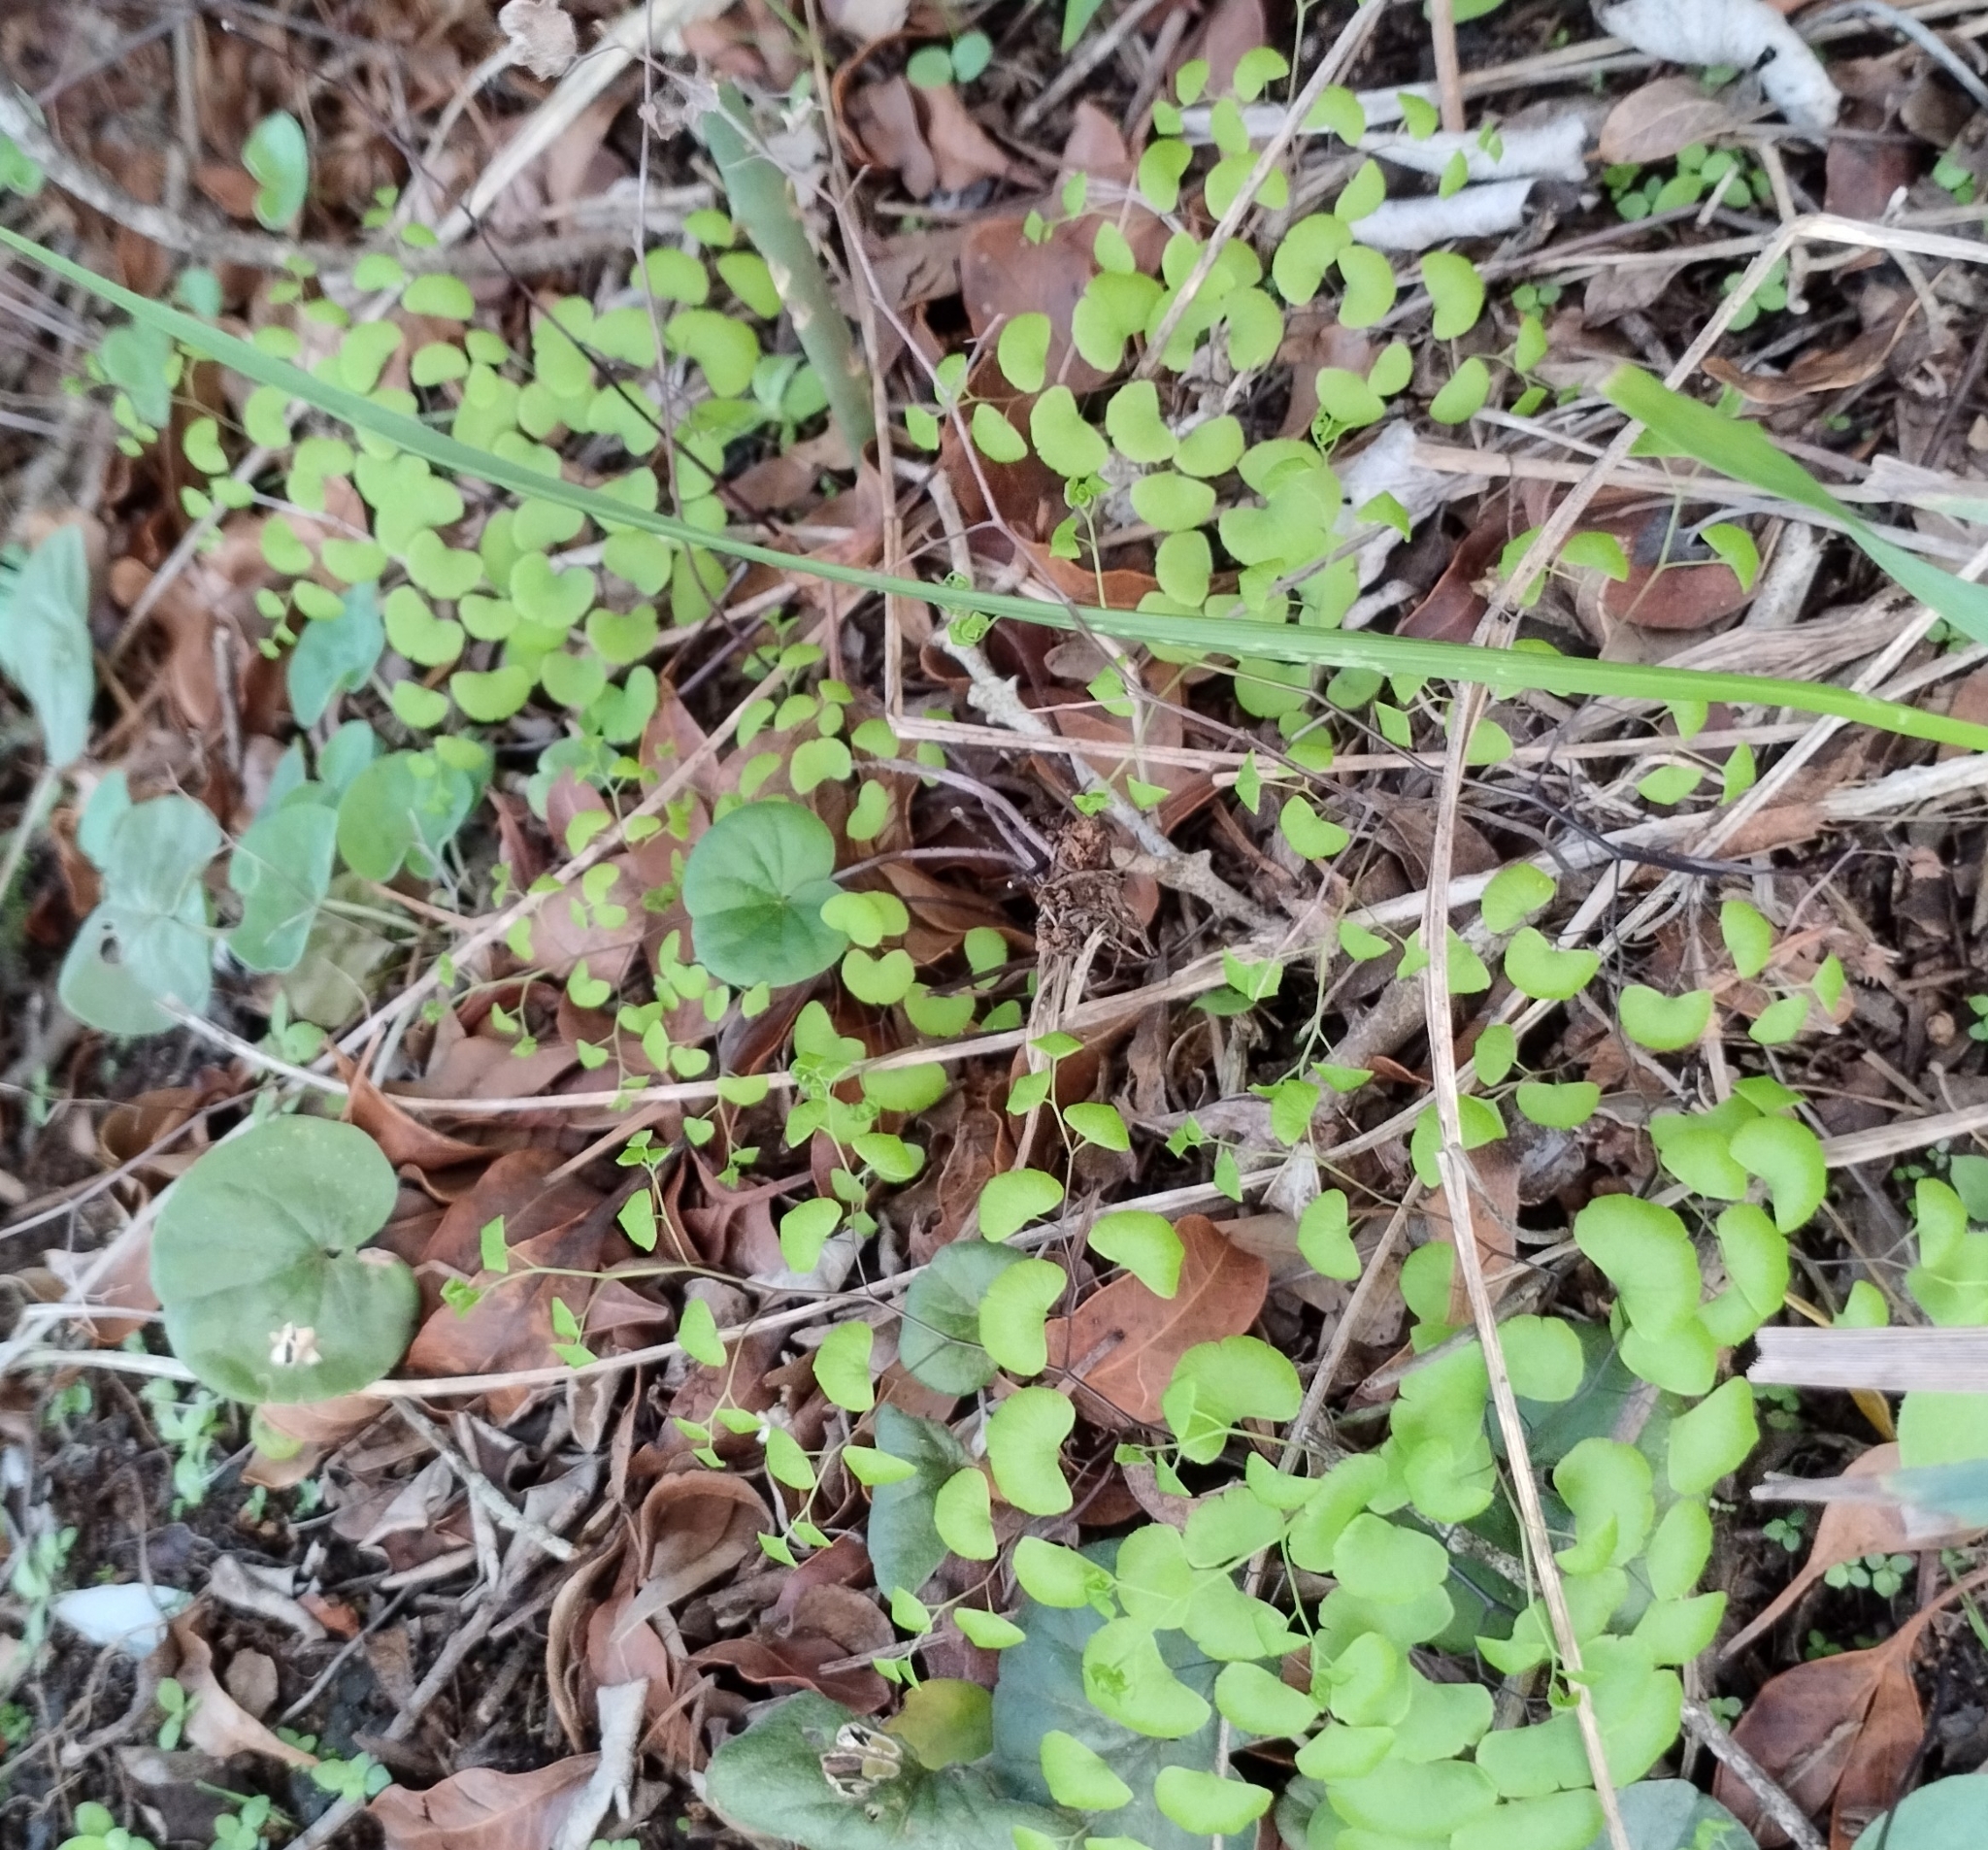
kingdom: Plantae
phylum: Tracheophyta
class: Polypodiopsida
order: Polypodiales
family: Pteridaceae
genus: Adiantum
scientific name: Adiantum poiretii
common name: Mexican maidenhair
